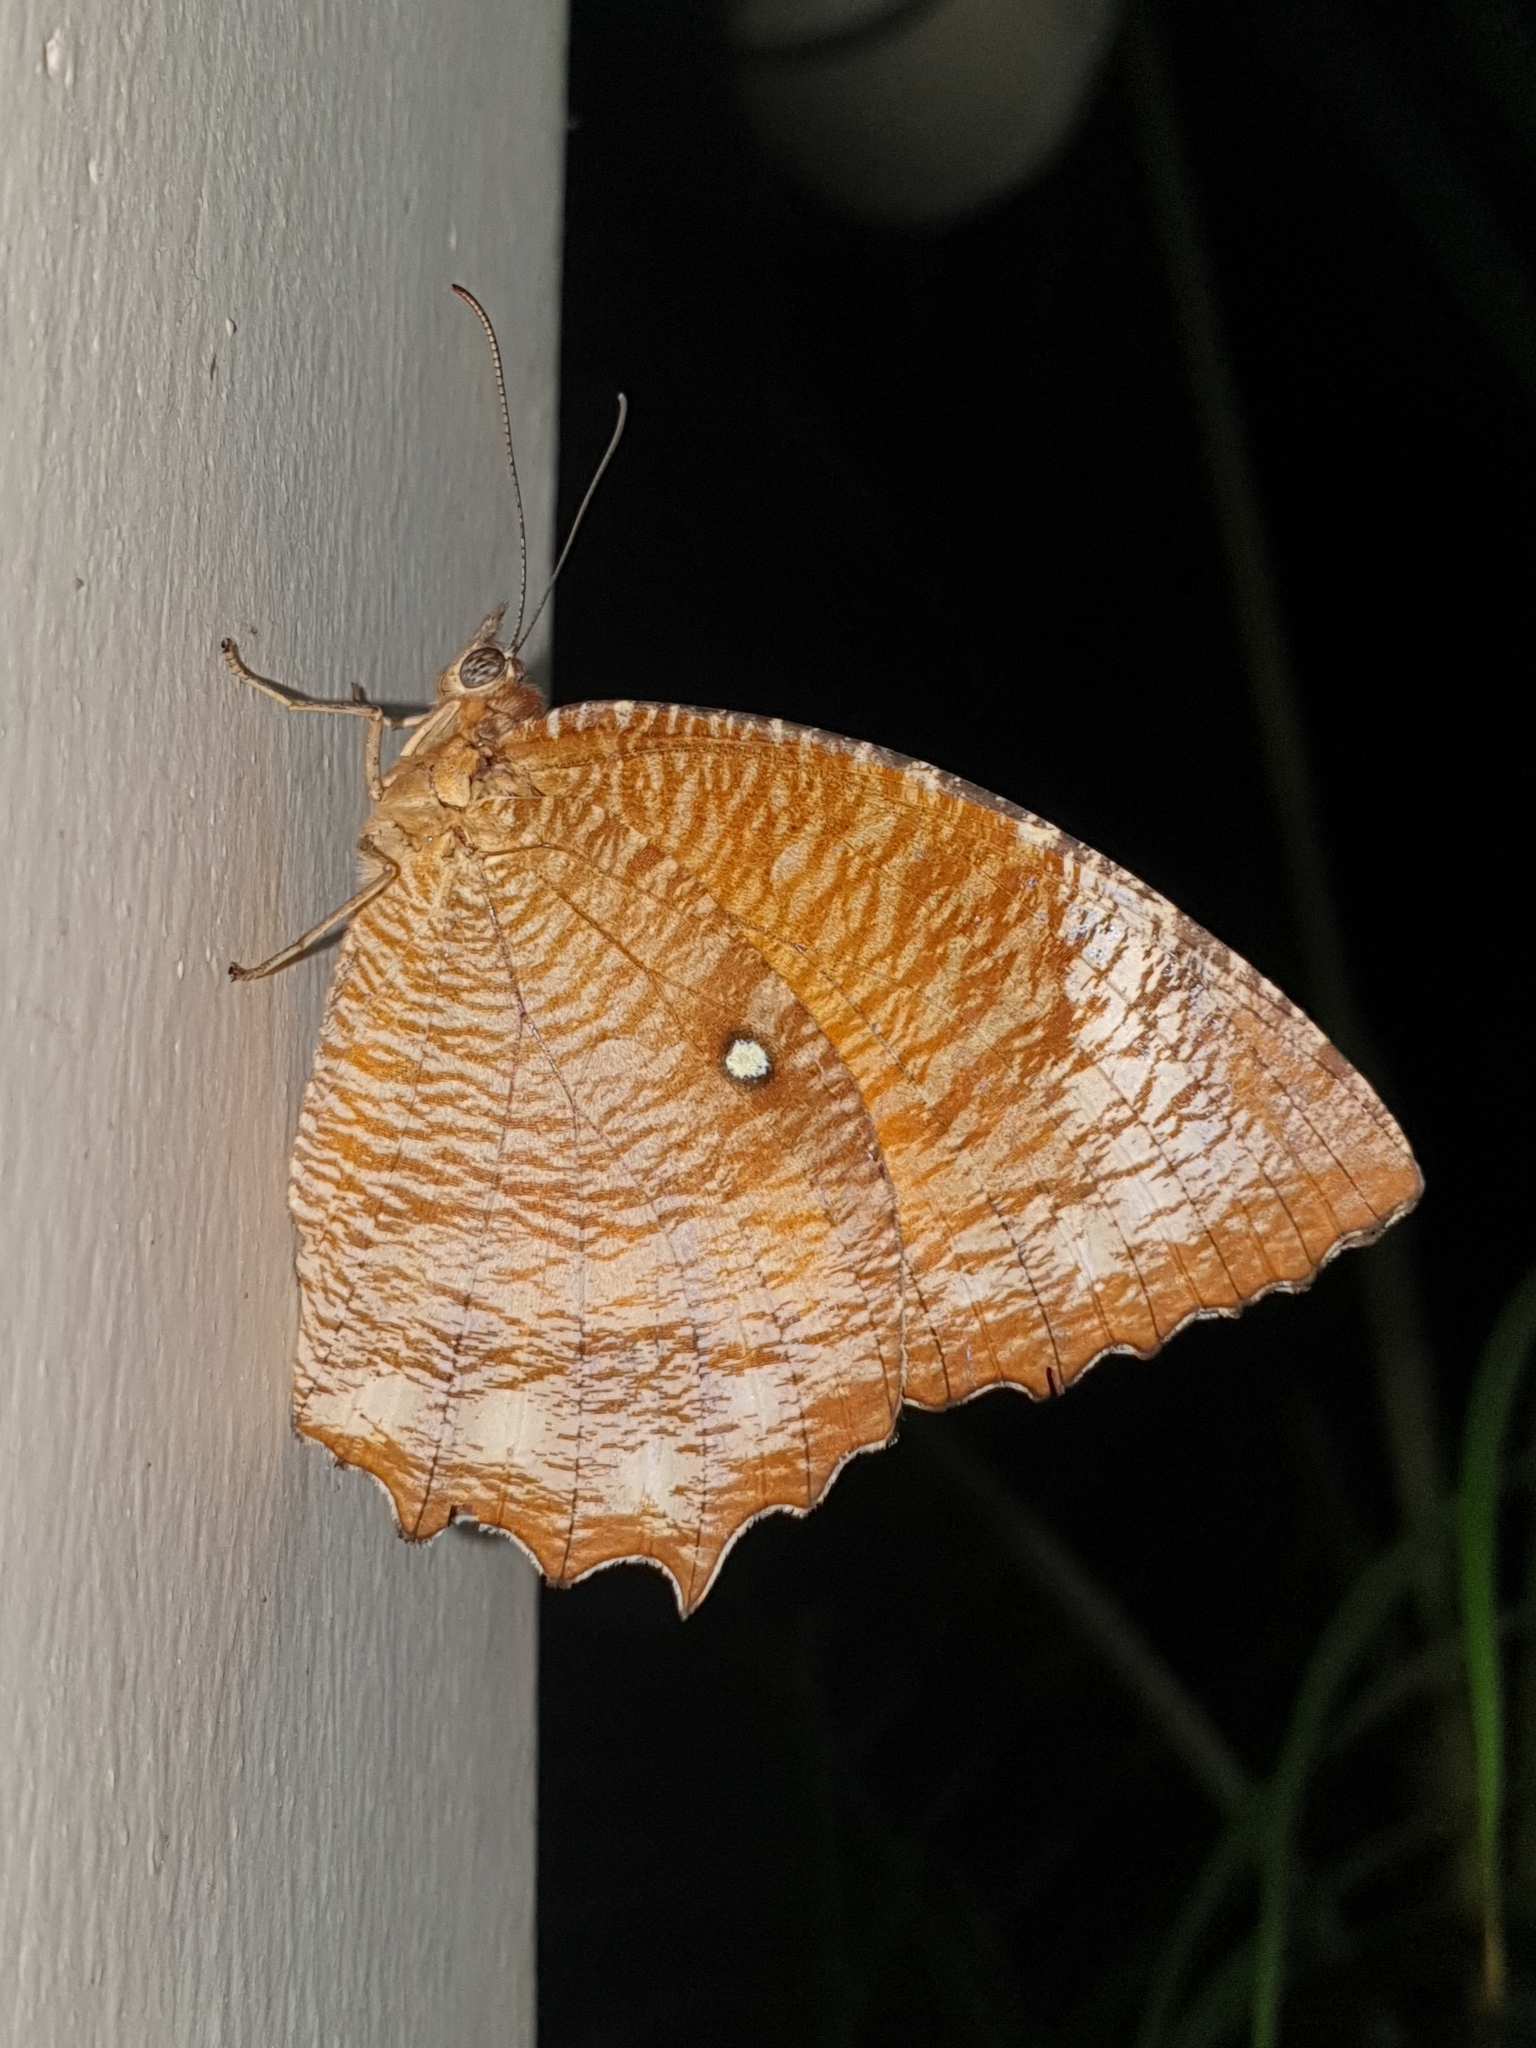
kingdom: Animalia
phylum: Arthropoda
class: Insecta
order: Lepidoptera
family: Nymphalidae
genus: Elymnias
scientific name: Elymnias hypermnestra
